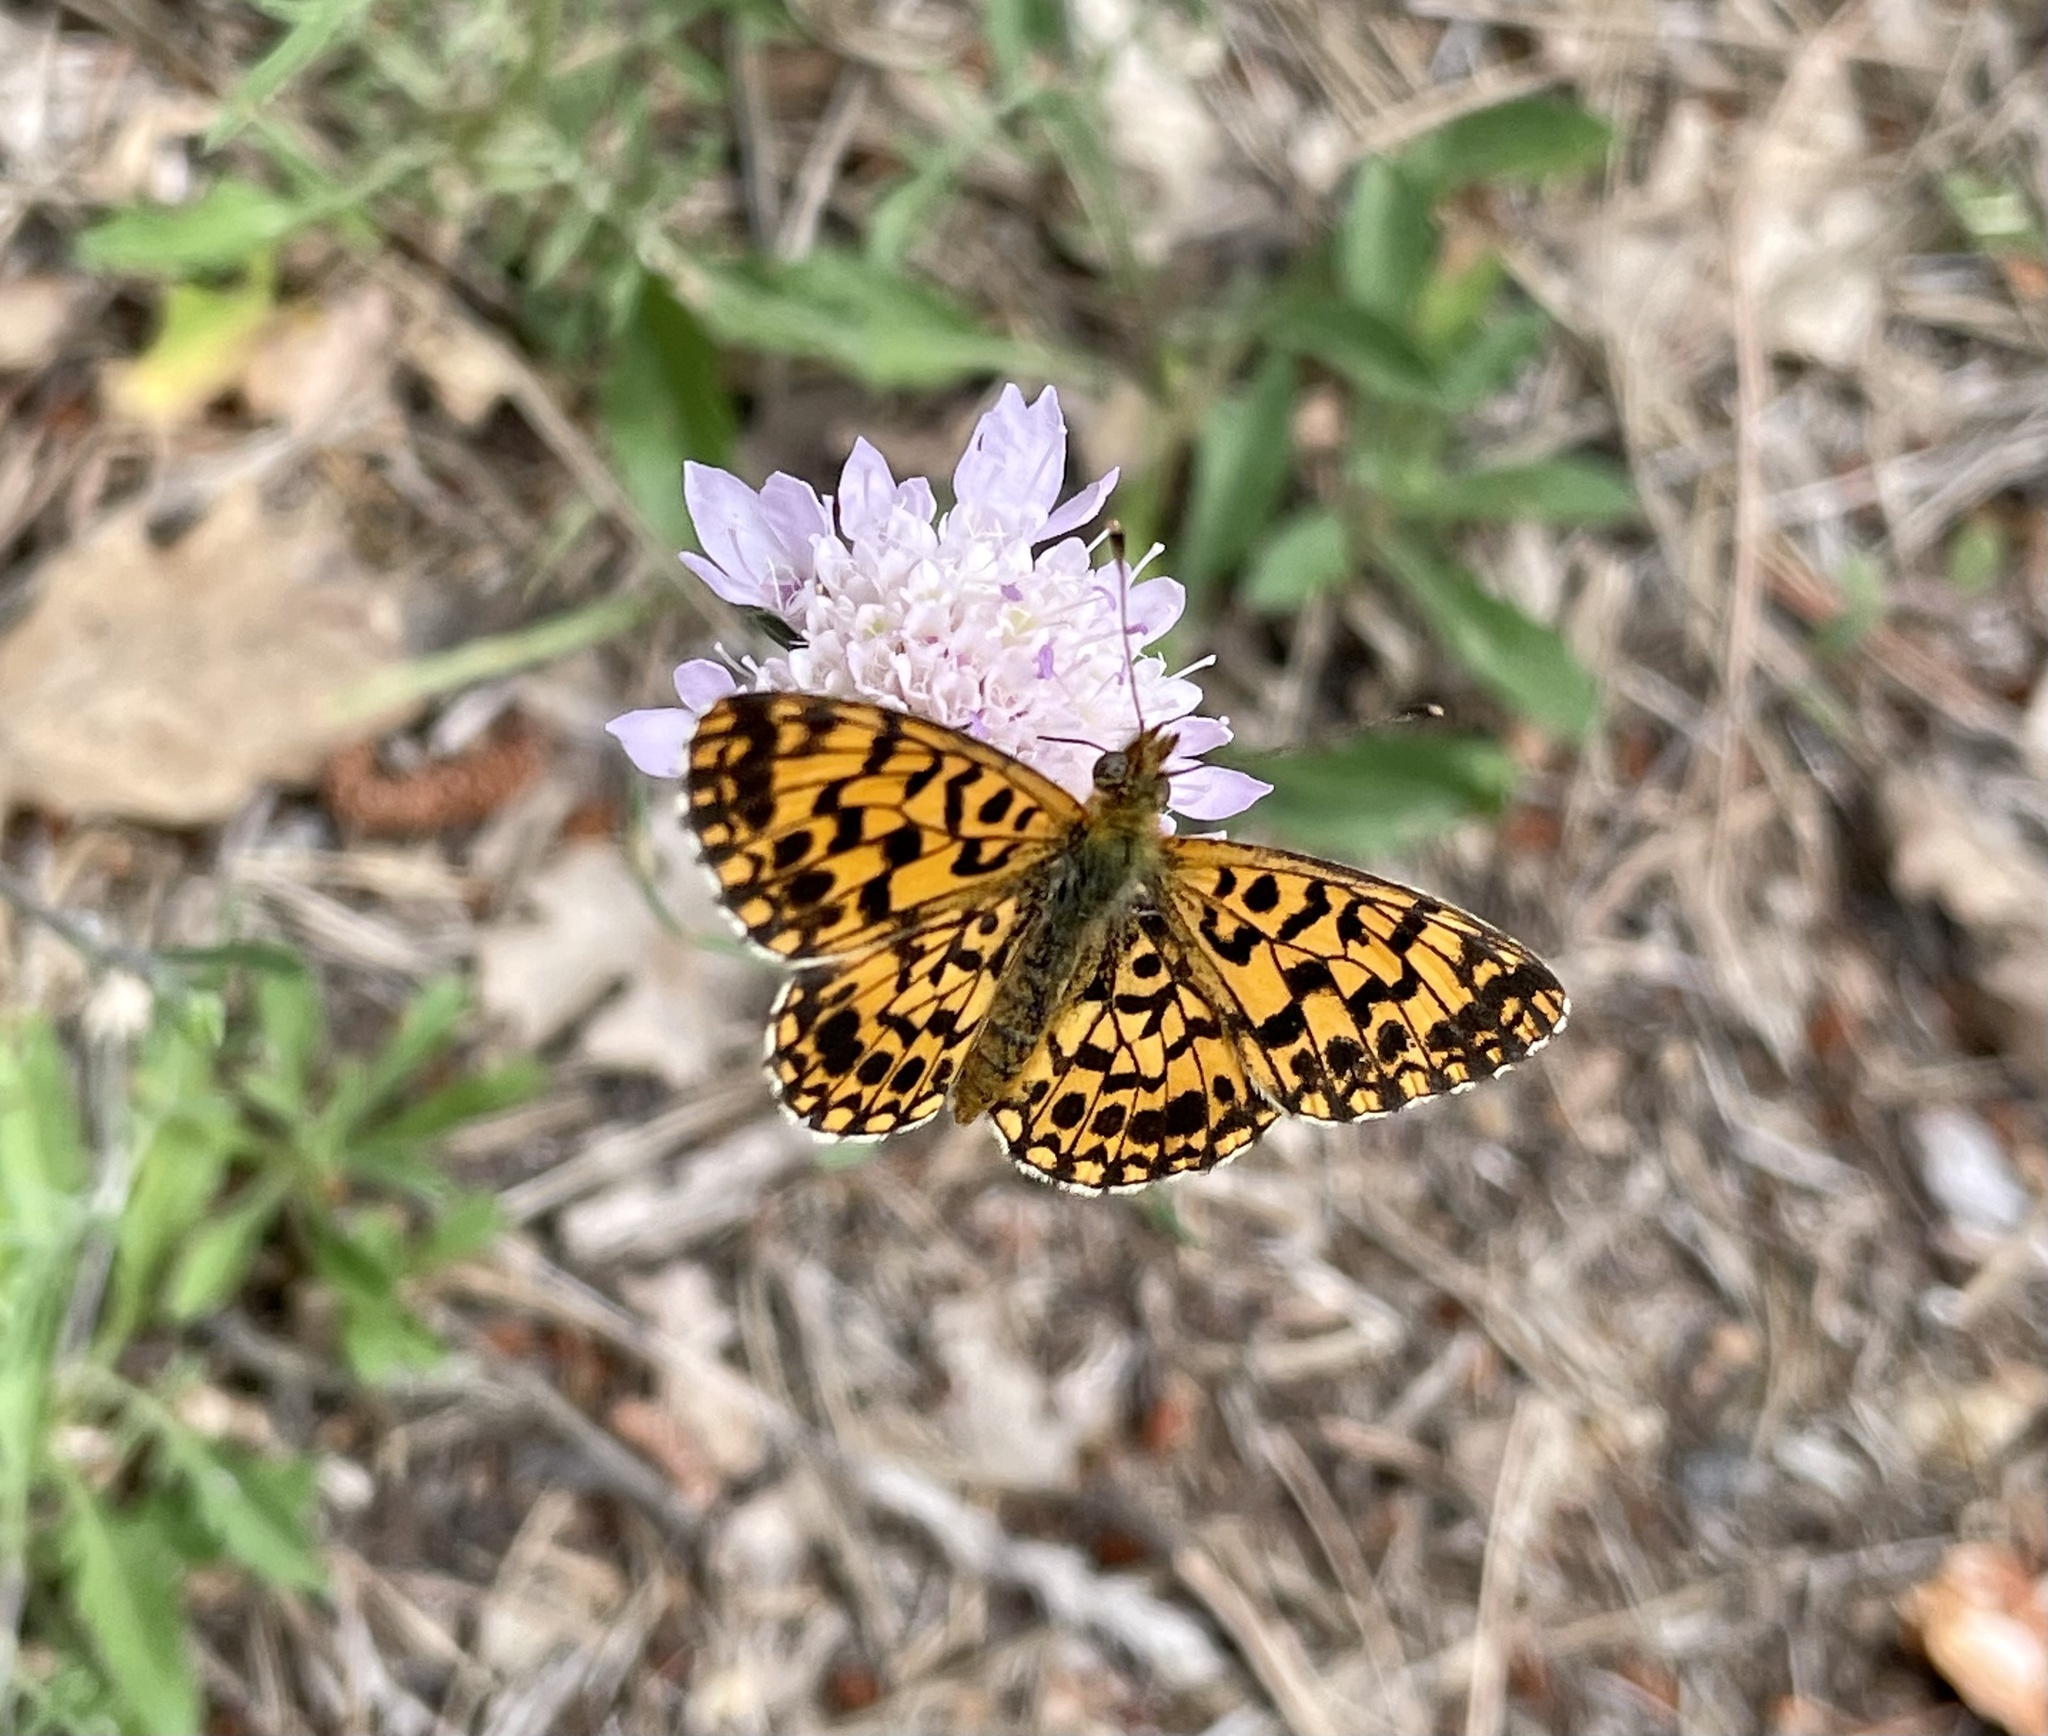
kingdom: Animalia
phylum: Arthropoda
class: Insecta
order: Lepidoptera
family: Nymphalidae
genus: Boloria
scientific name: Boloria dia
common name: Weaver's fritillary
